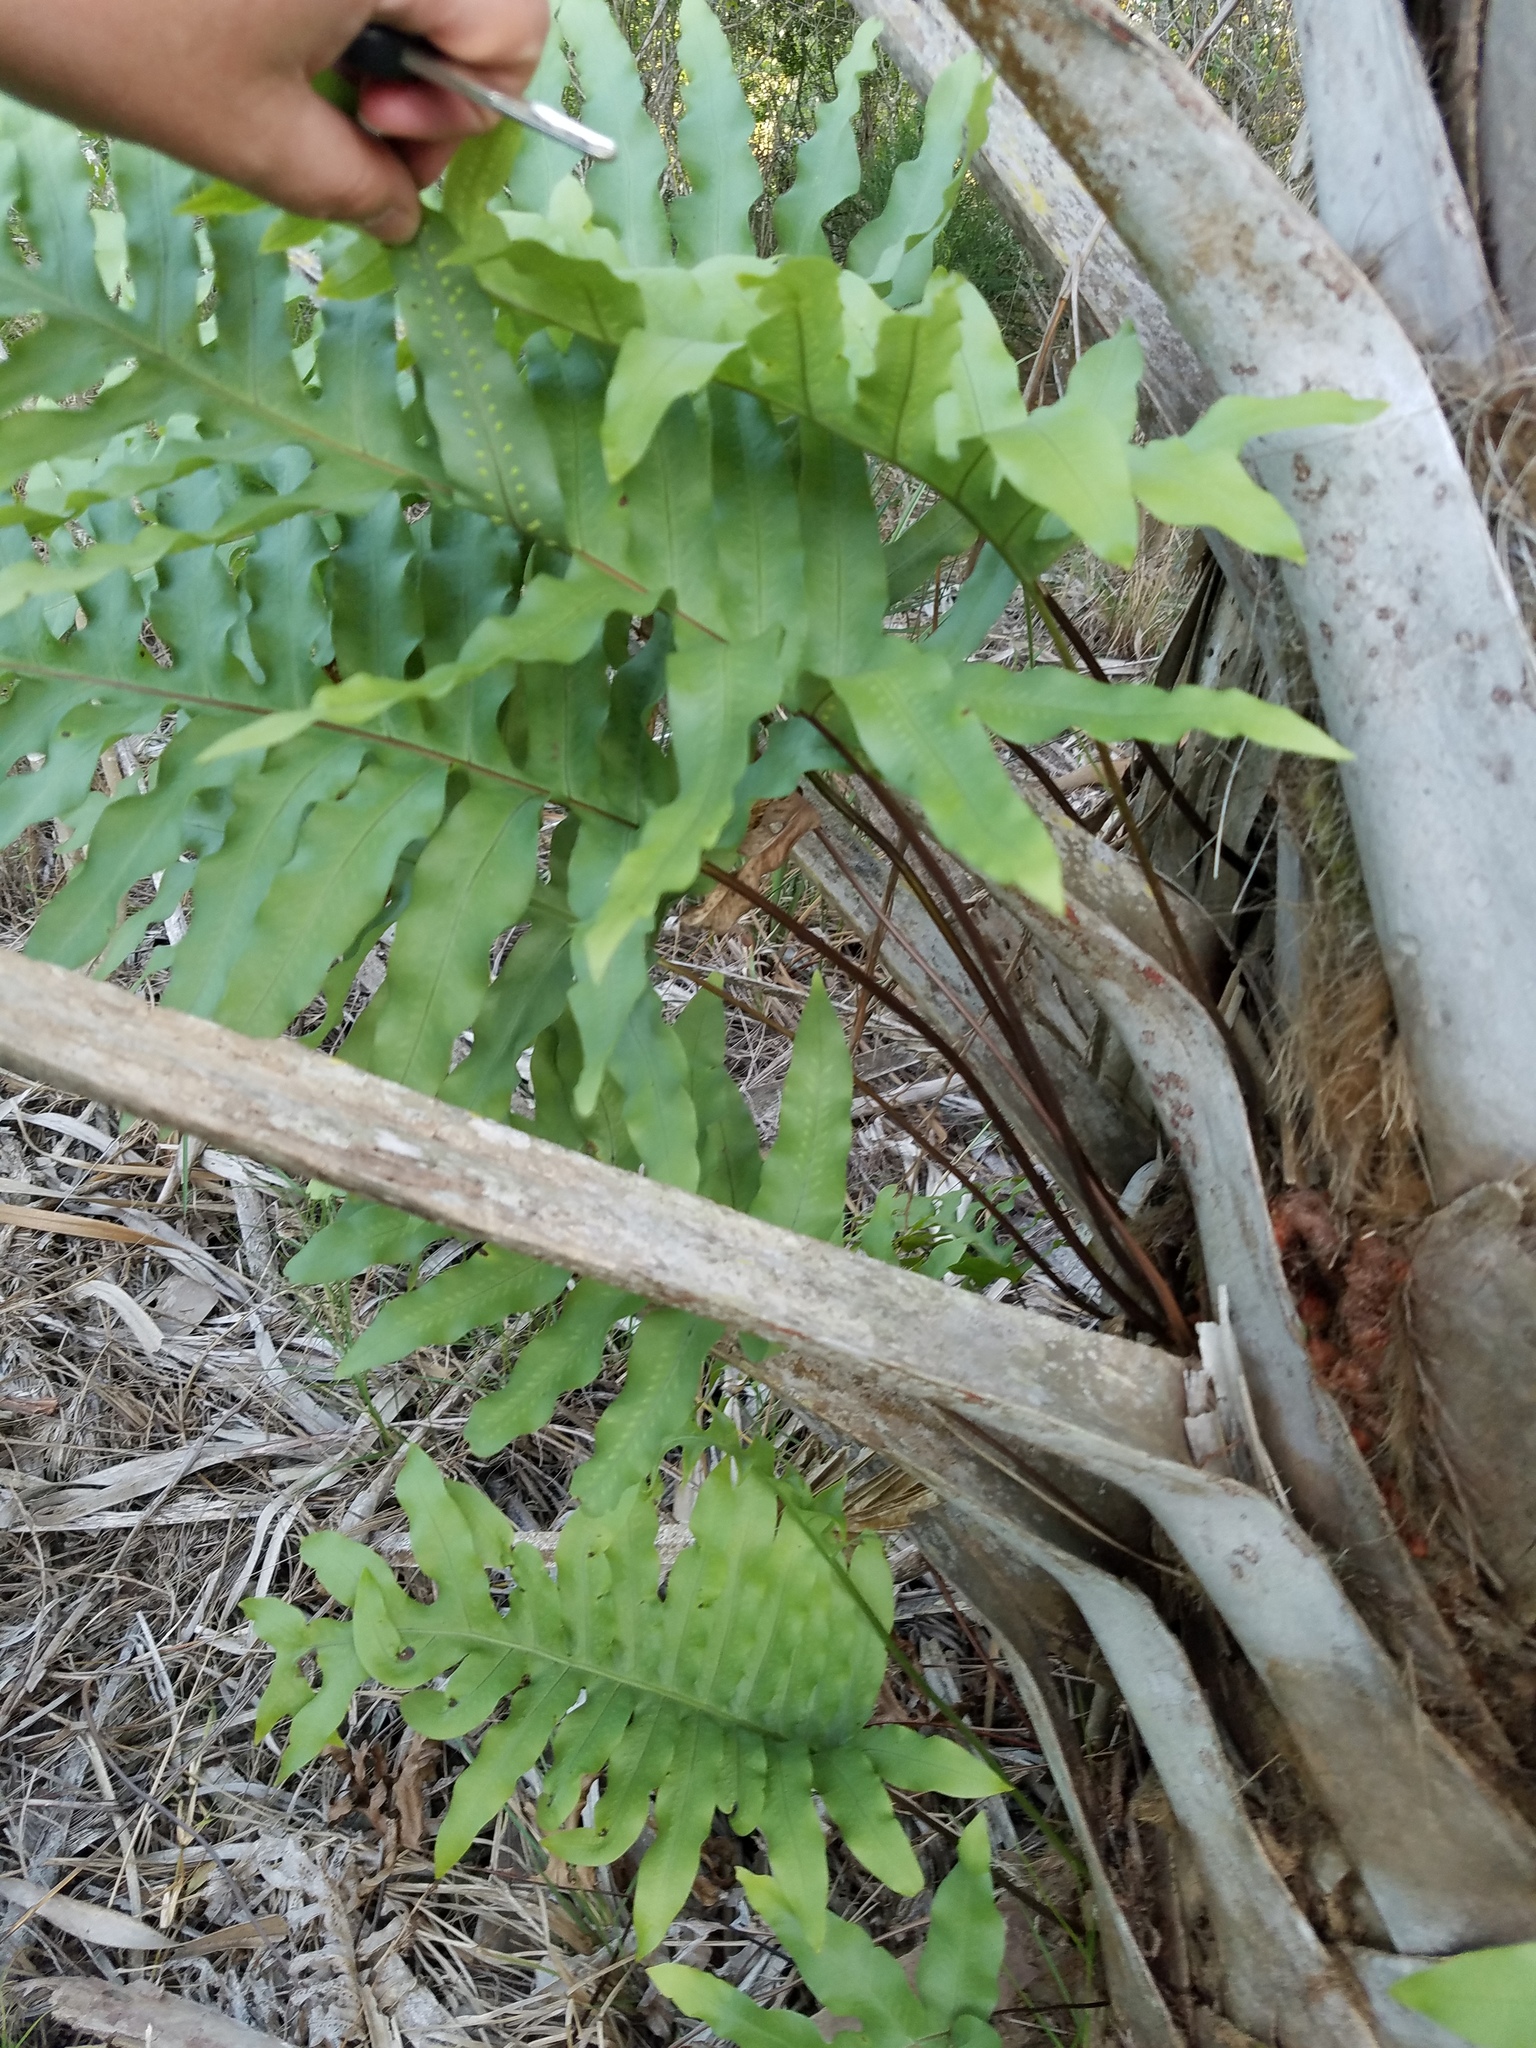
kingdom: Plantae
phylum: Tracheophyta
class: Polypodiopsida
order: Polypodiales
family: Polypodiaceae
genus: Phlebodium
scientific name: Phlebodium aureum
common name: Gold-foot fern
